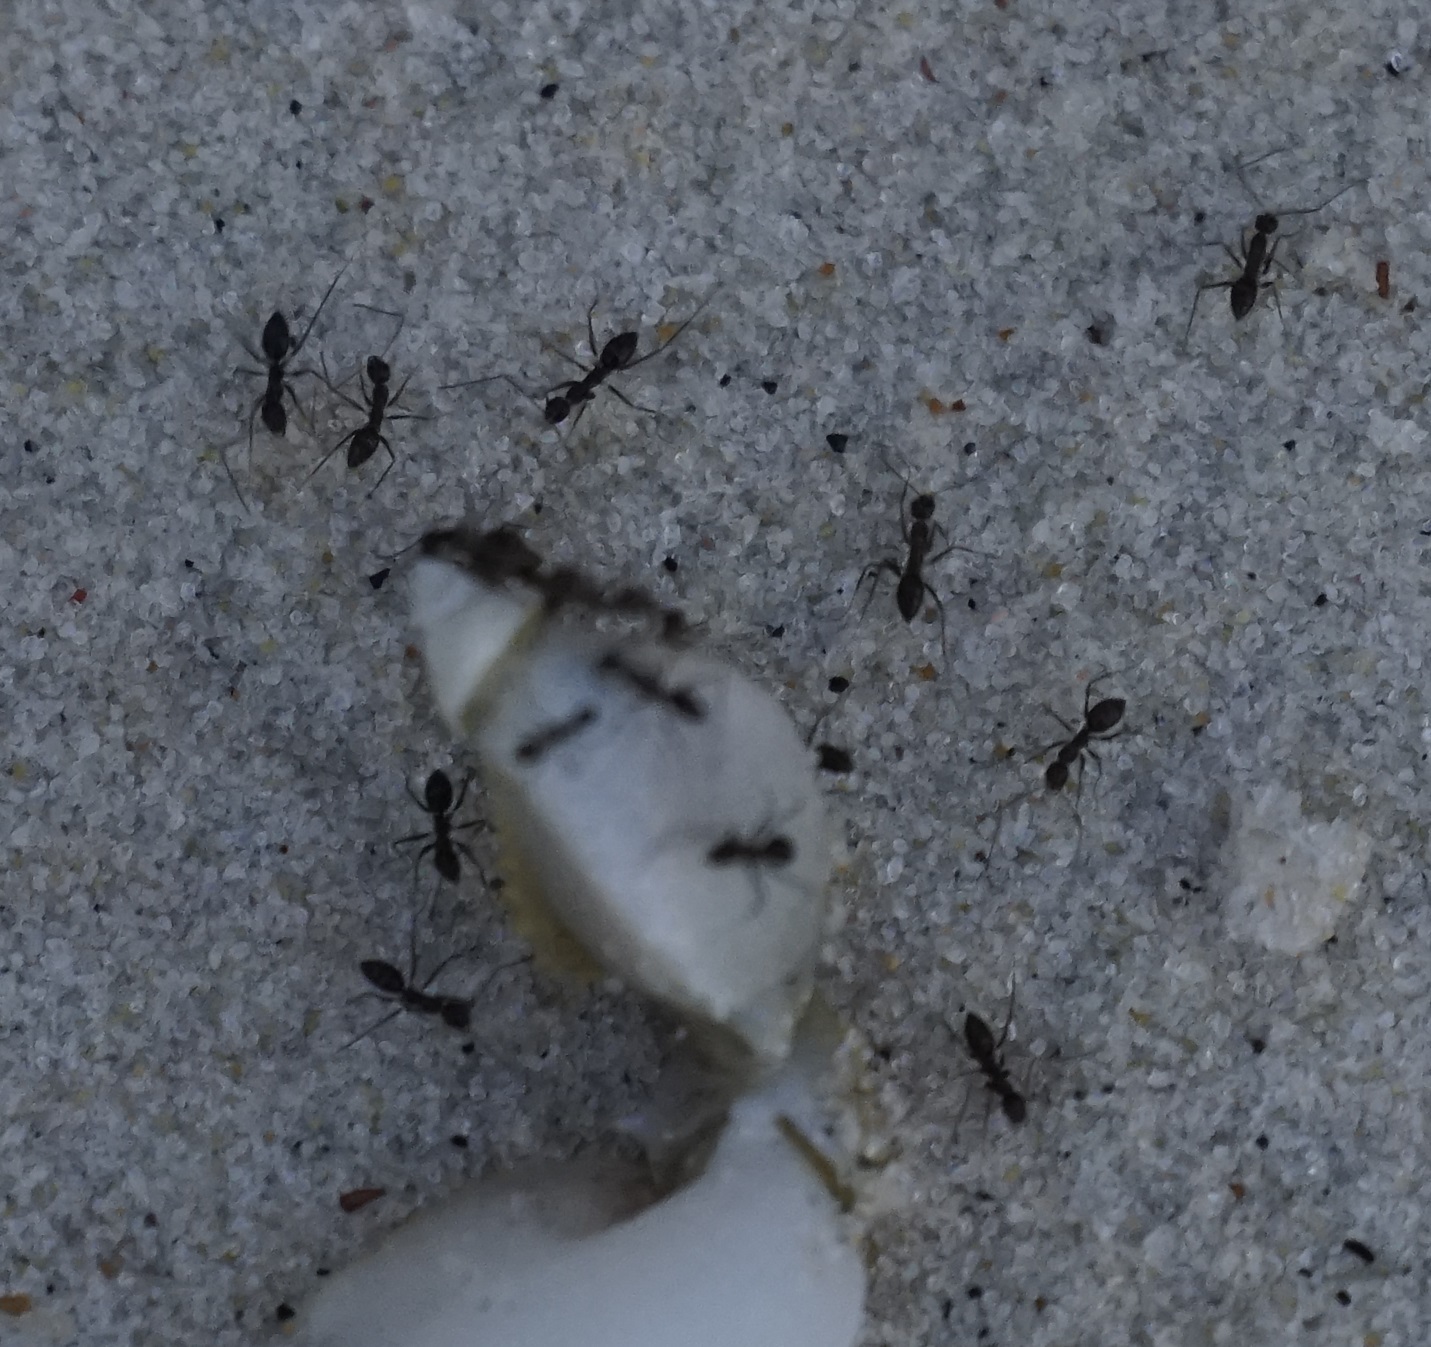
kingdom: Animalia
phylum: Arthropoda
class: Insecta
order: Hymenoptera
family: Formicidae
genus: Paratrechina
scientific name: Paratrechina longicornis
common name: Longhorned crazy ant
